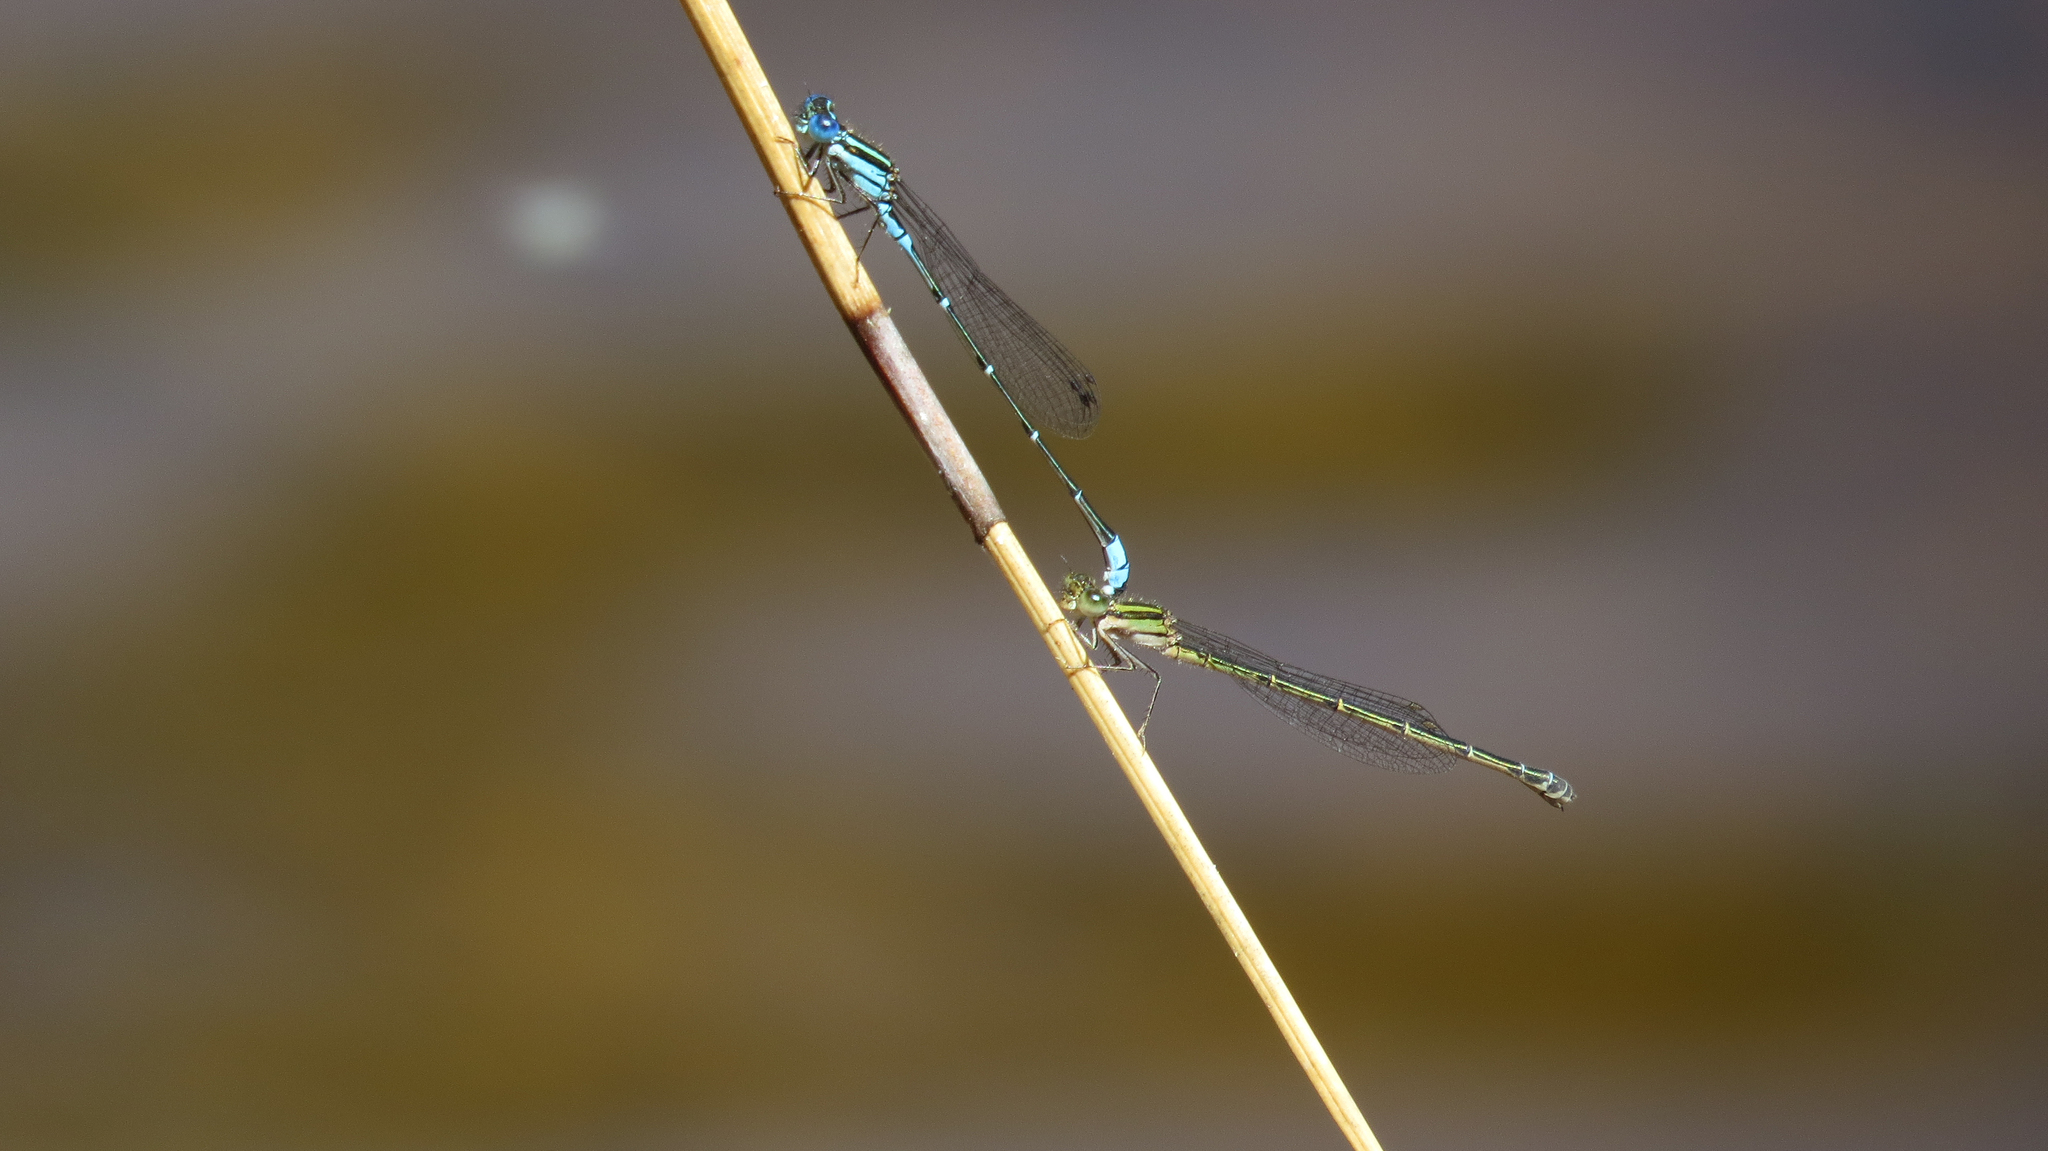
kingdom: Animalia
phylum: Arthropoda
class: Insecta
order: Odonata
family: Coenagrionidae
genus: Austroagrion
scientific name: Austroagrion watsoni
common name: Eastern billabongfly
